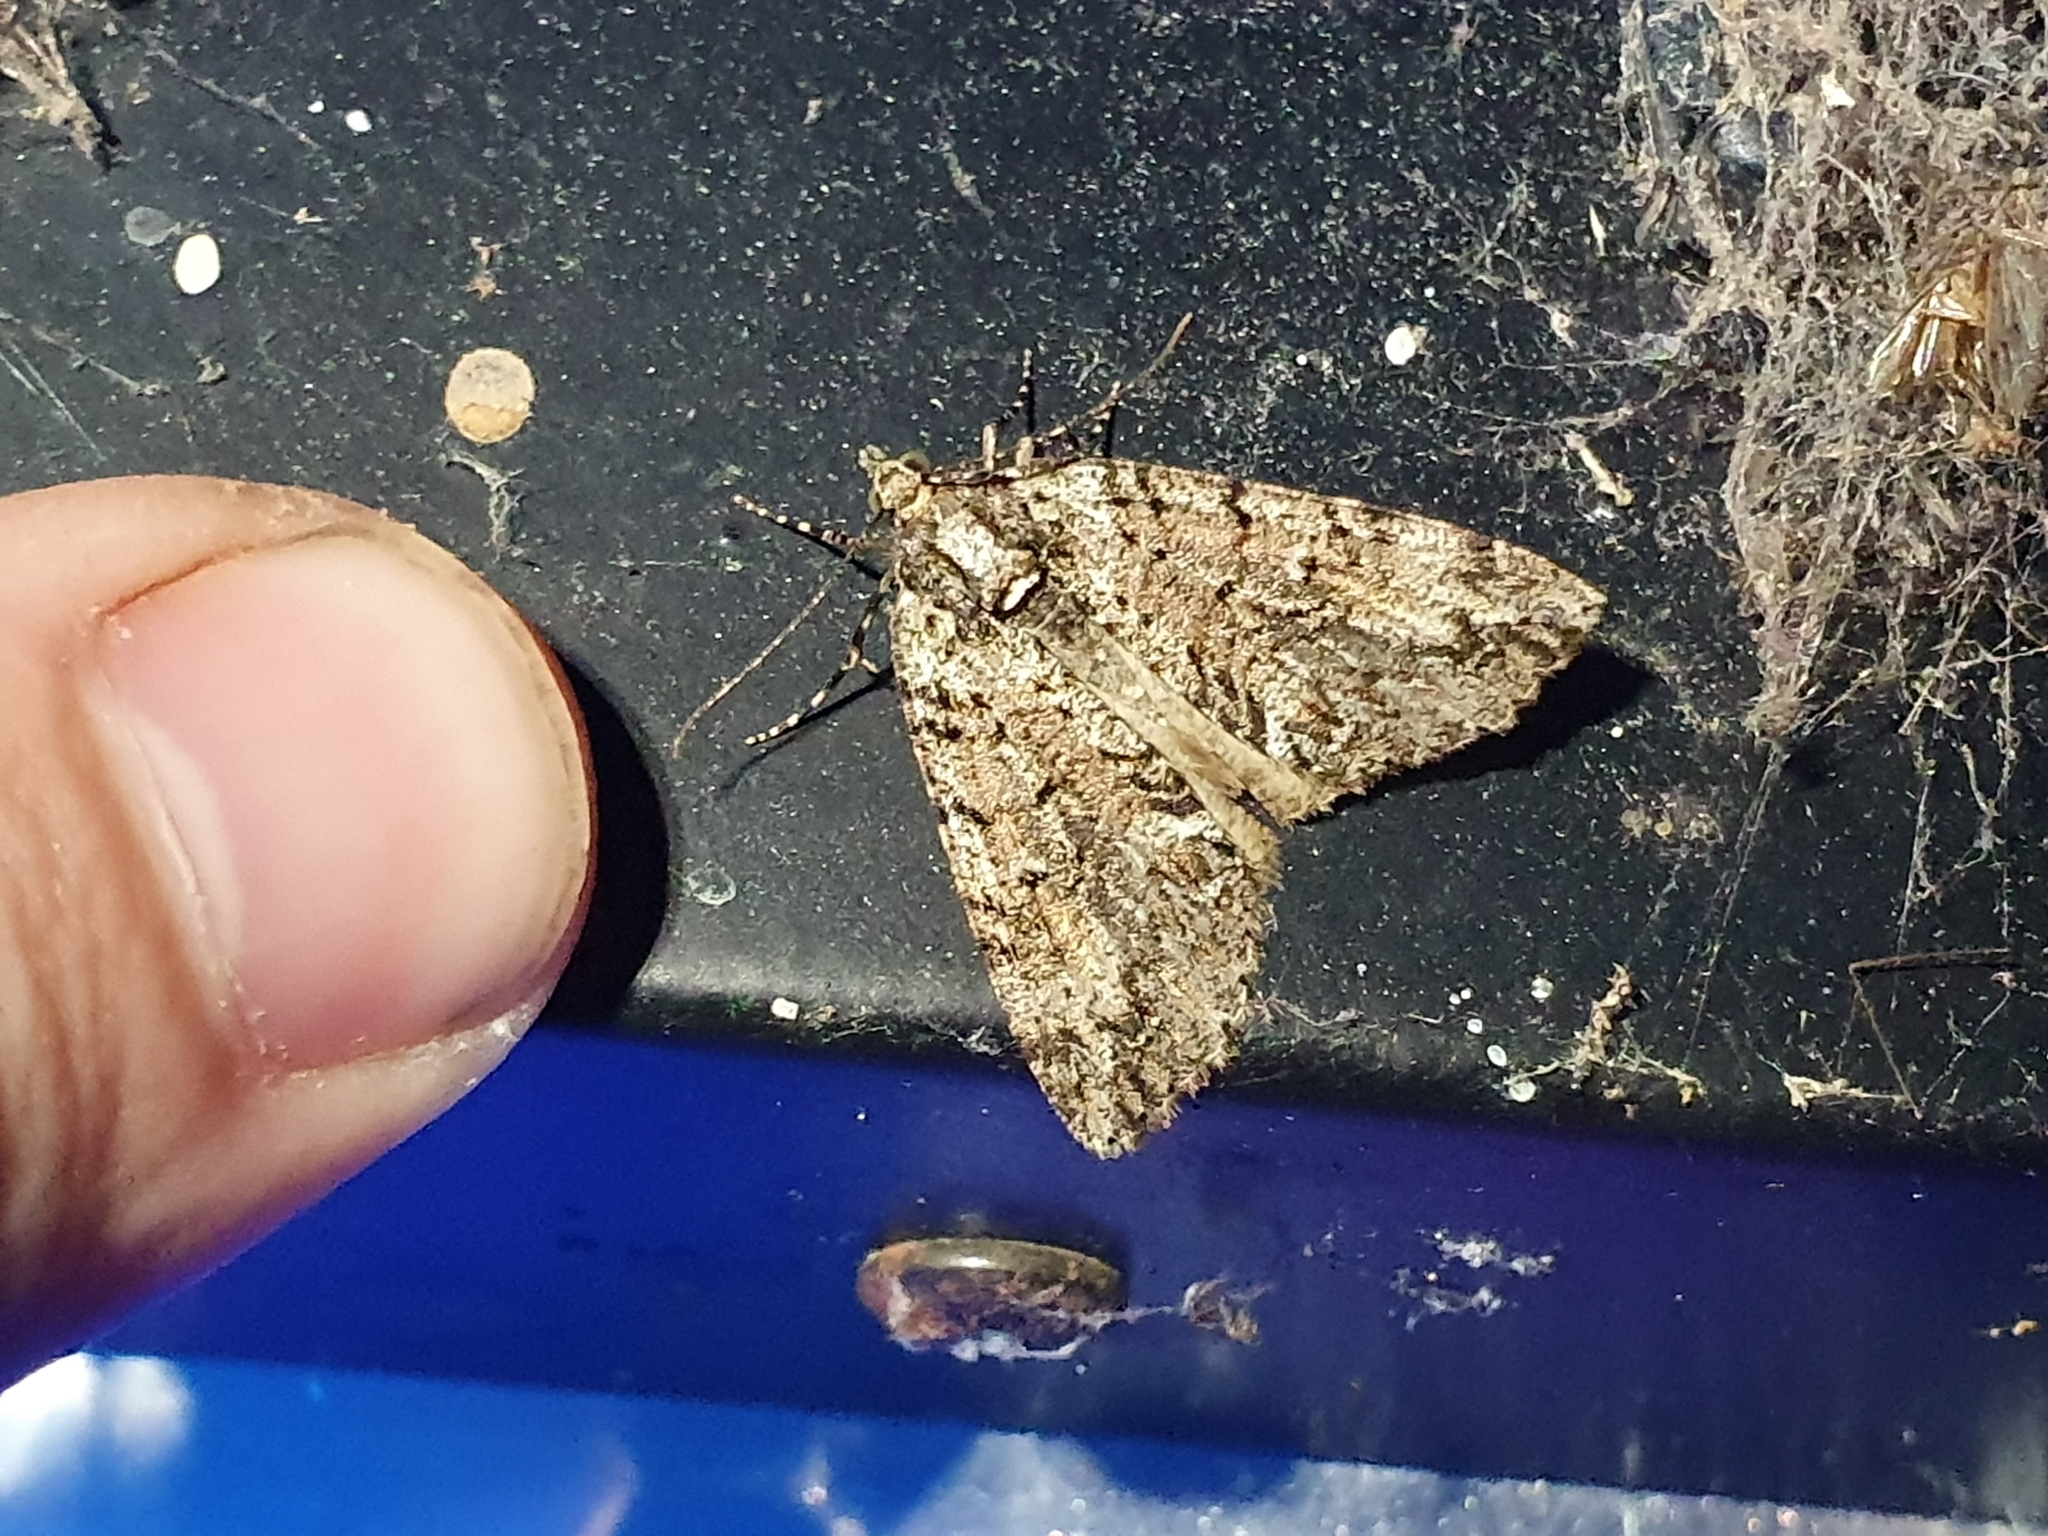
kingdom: Animalia
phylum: Arthropoda
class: Insecta
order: Lepidoptera
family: Geometridae
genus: Pseudocoremia
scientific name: Pseudocoremia suavis
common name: Common forest looper
